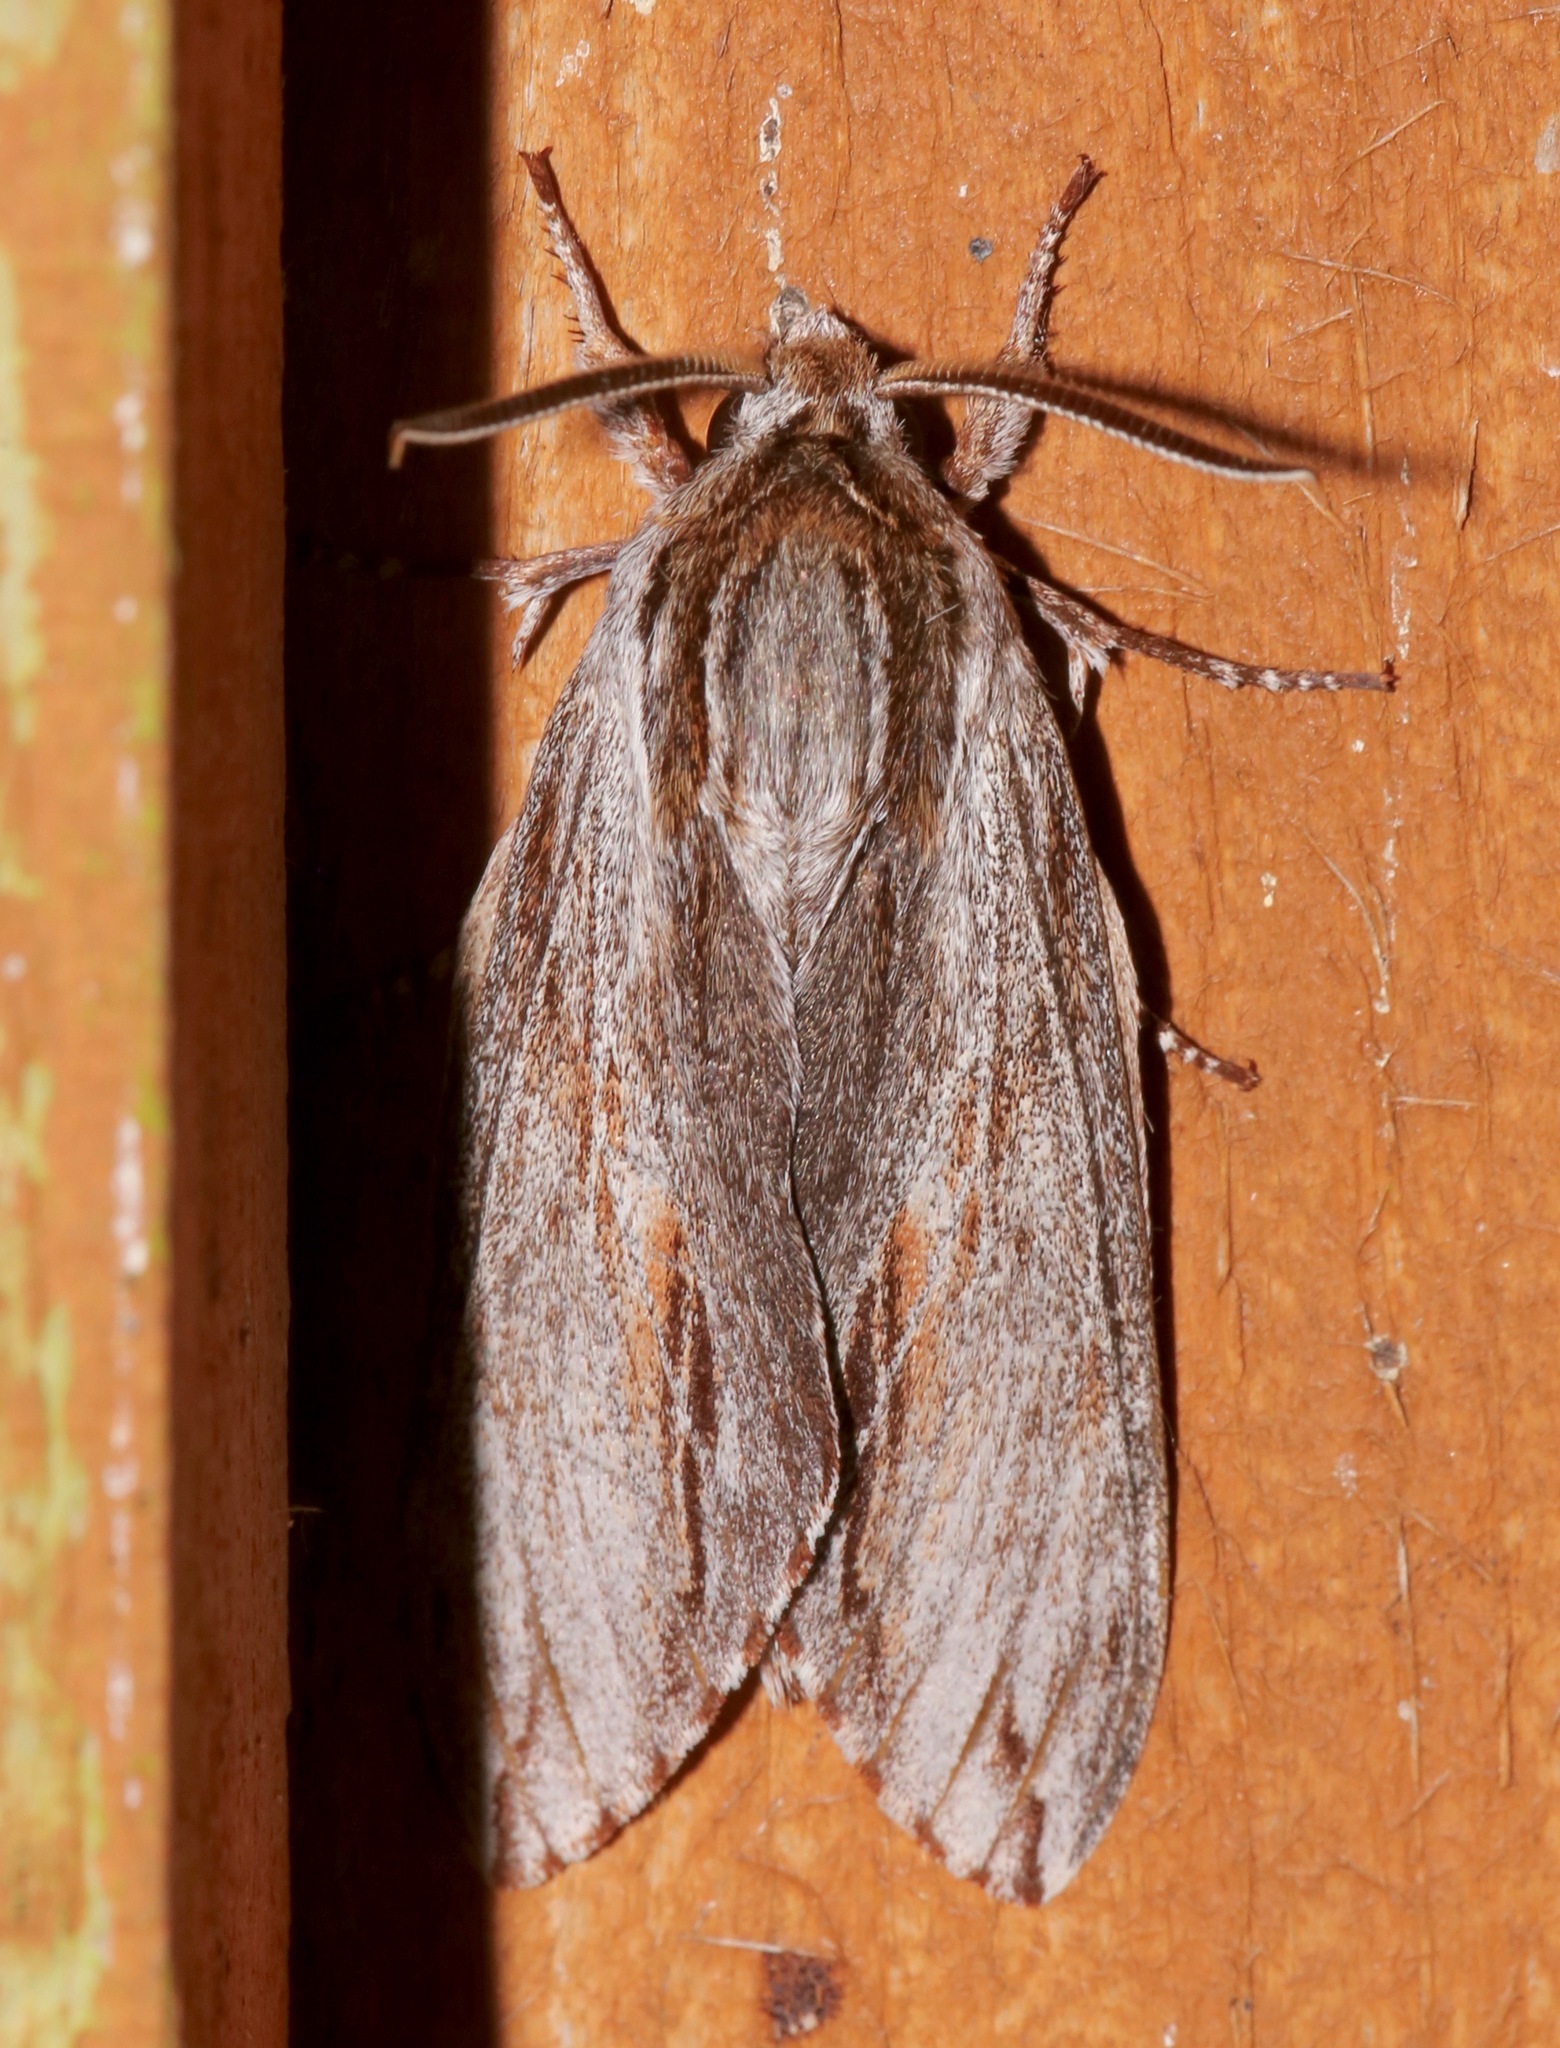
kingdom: Animalia
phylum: Arthropoda
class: Insecta
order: Lepidoptera
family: Sphingidae
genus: Isoparce
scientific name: Isoparce cupressi
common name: Cypress sphinx
